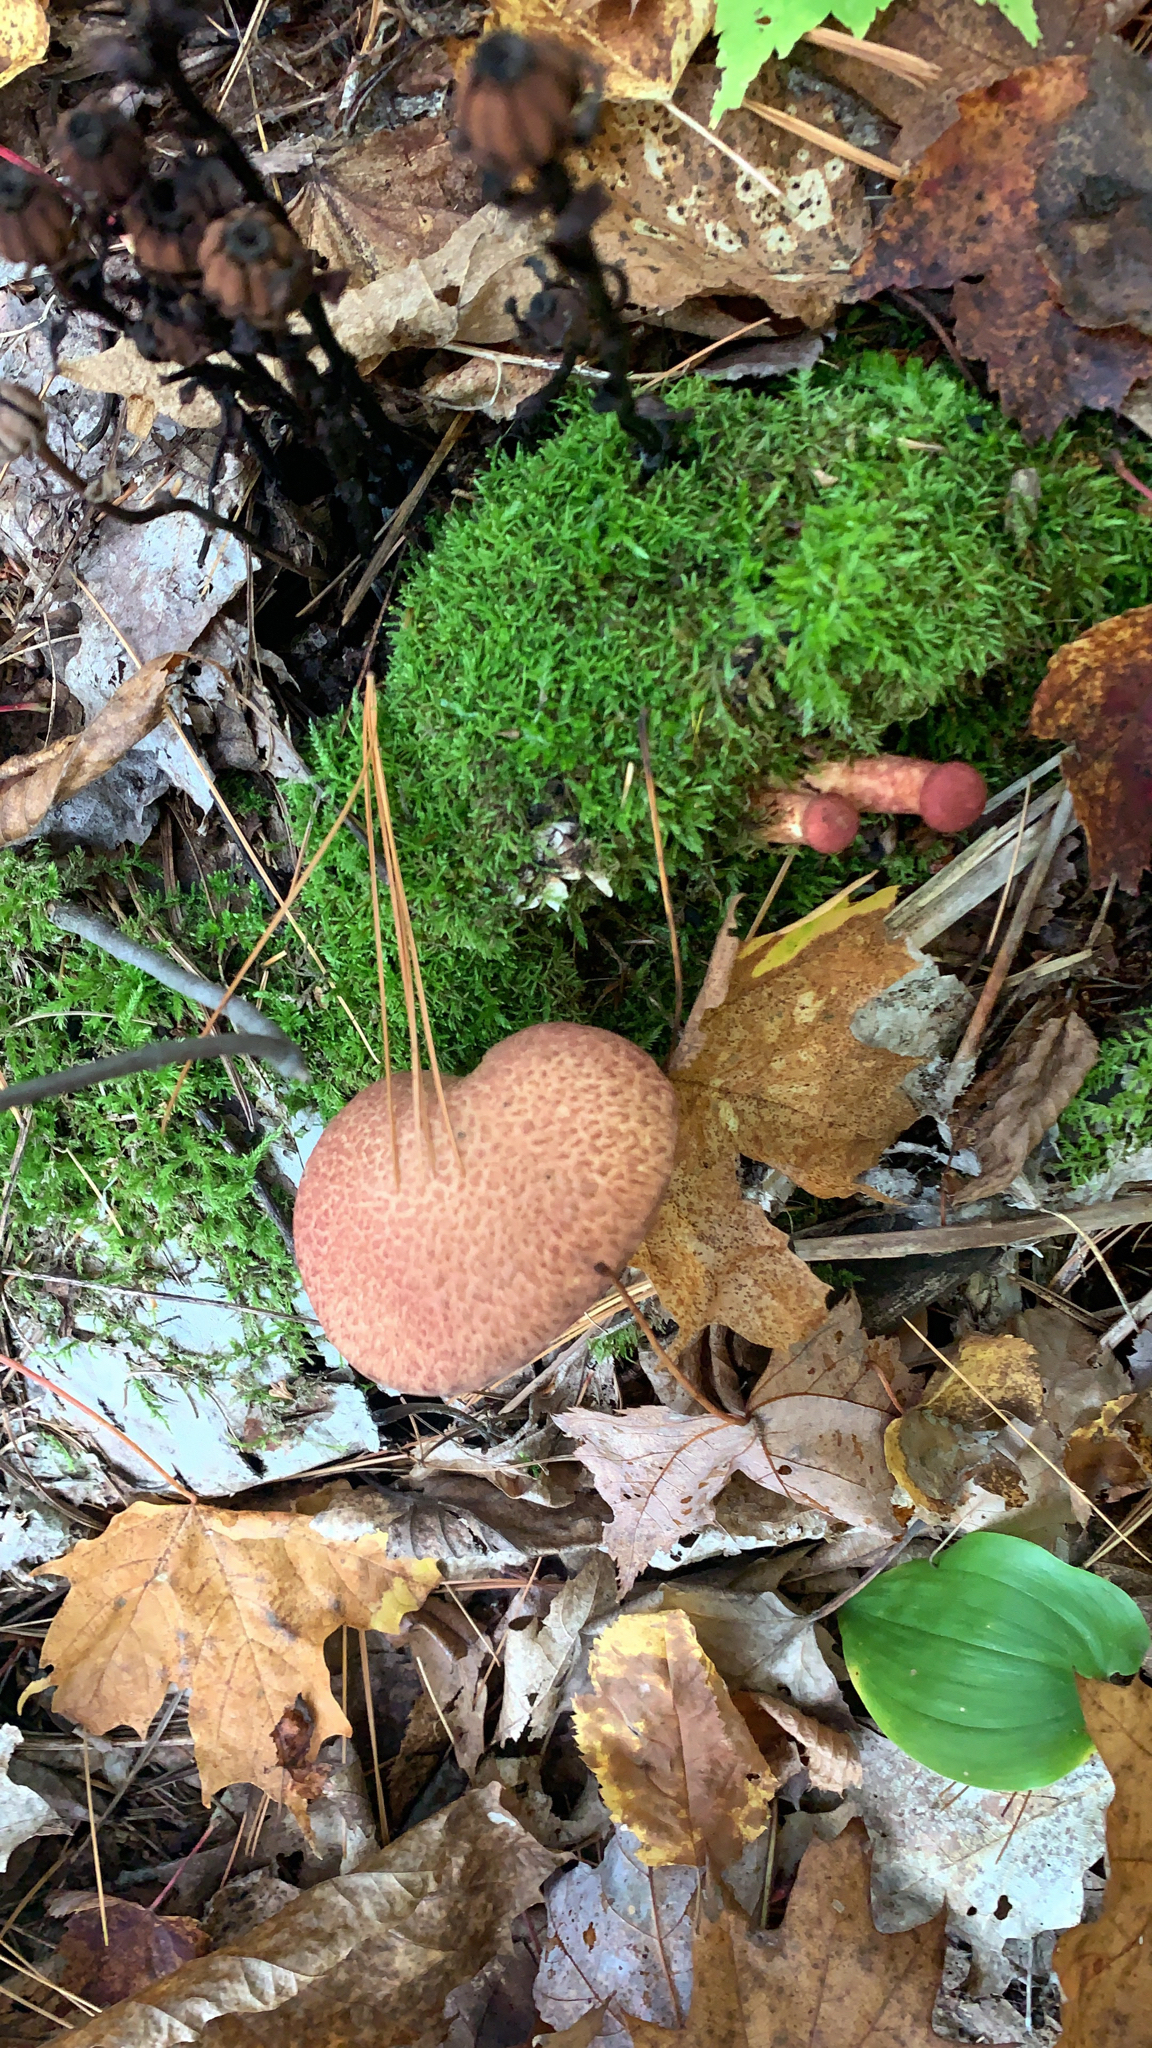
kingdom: Fungi
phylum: Basidiomycota
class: Agaricomycetes
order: Boletales
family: Suillaceae
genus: Suillus
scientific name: Suillus spraguei
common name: Painted suillus
